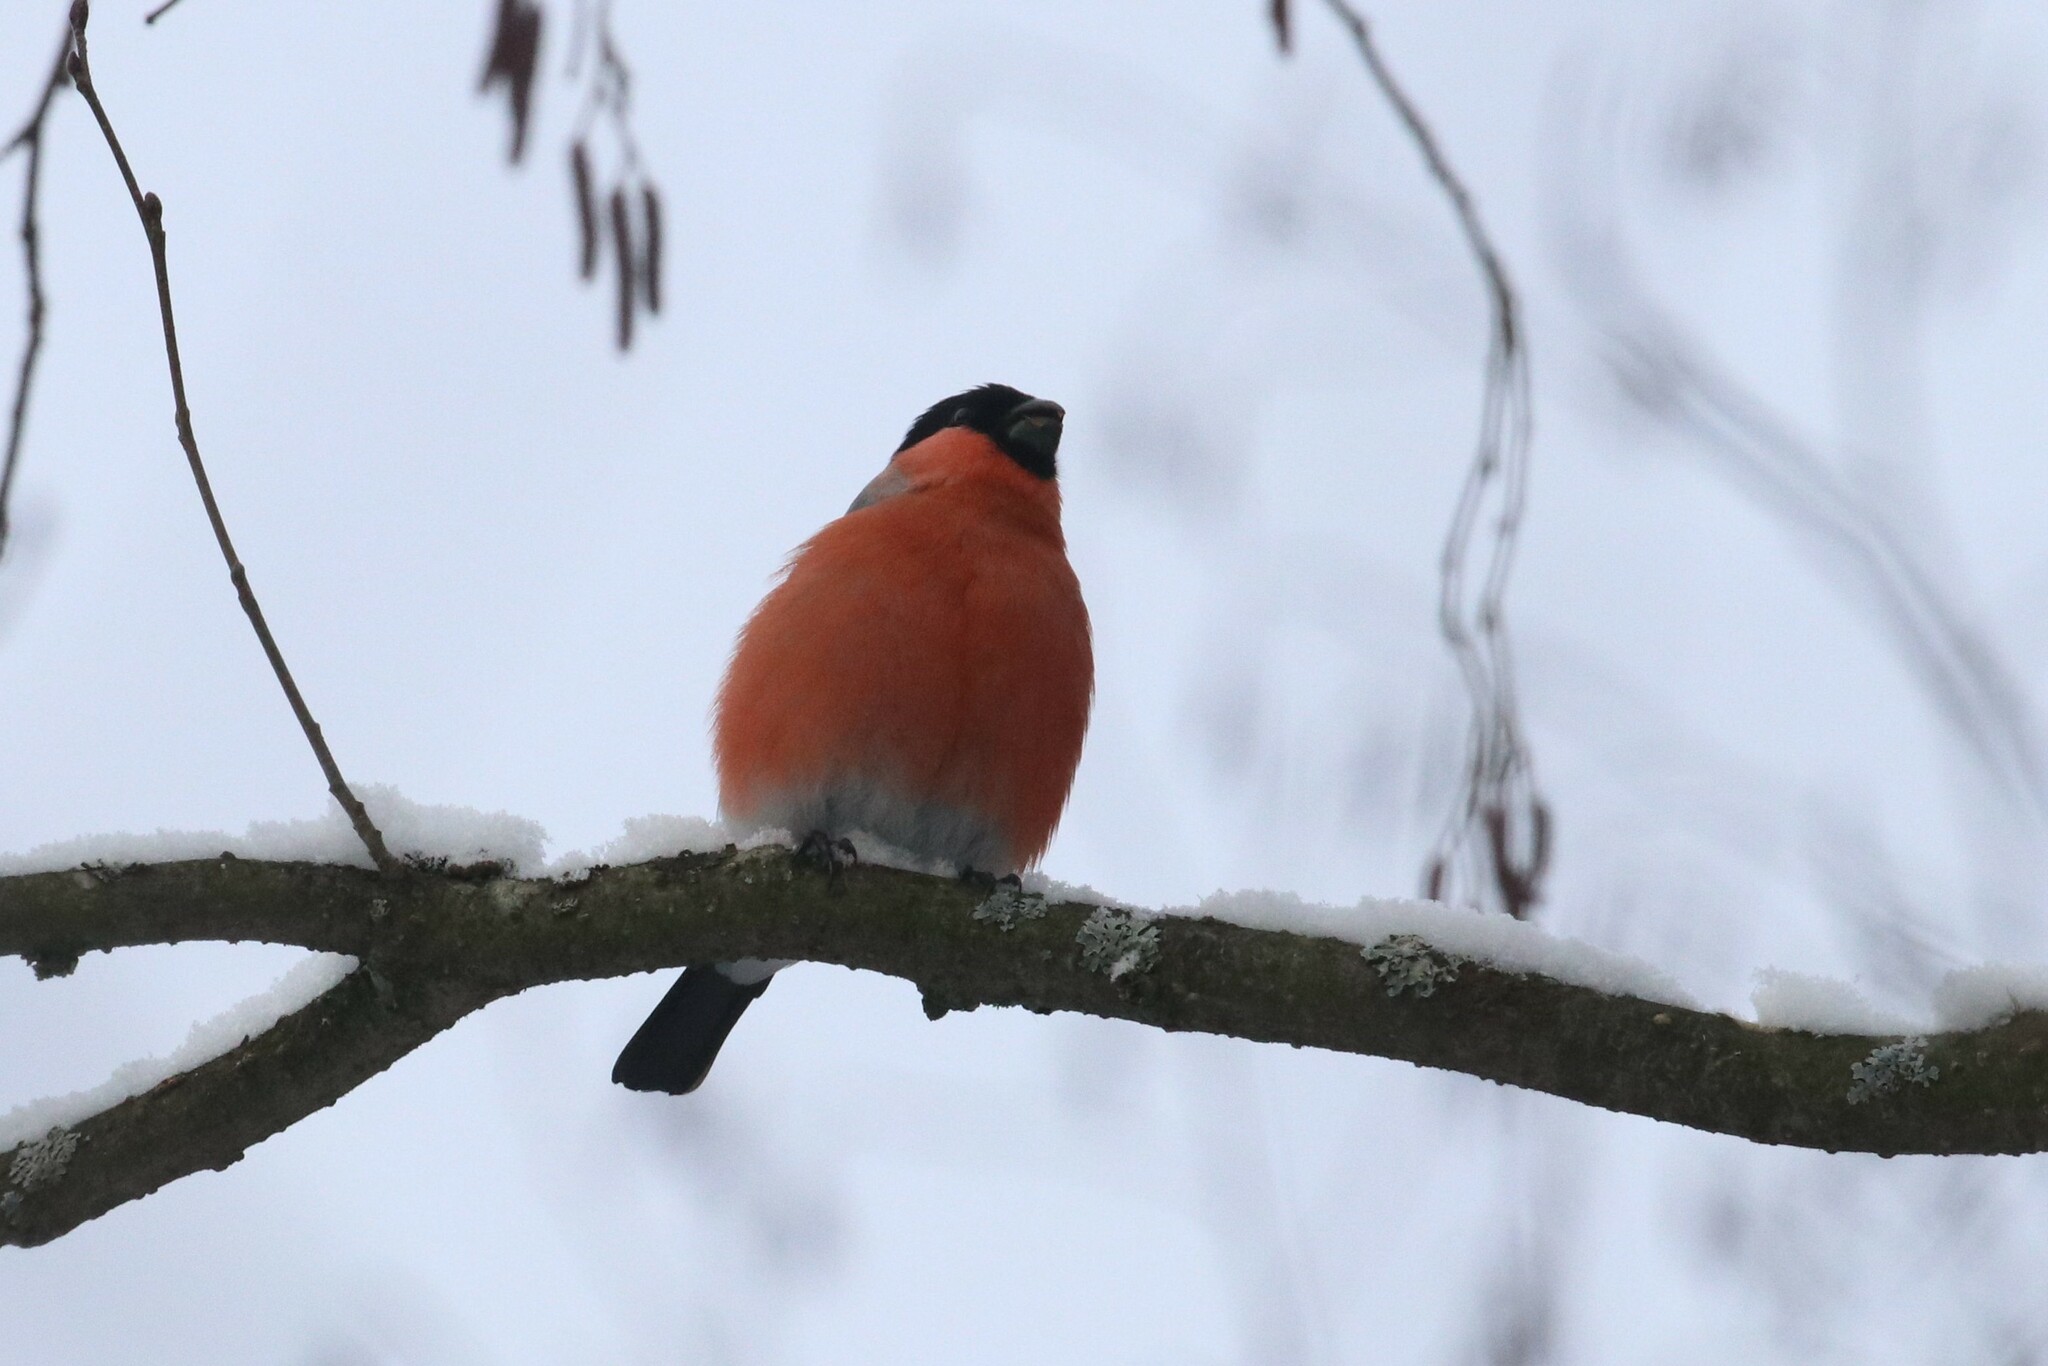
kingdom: Animalia
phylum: Chordata
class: Aves
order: Passeriformes
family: Fringillidae
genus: Pyrrhula
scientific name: Pyrrhula pyrrhula
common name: Eurasian bullfinch
